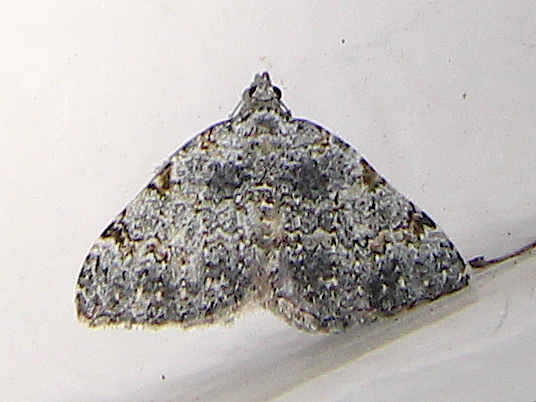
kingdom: Animalia
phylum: Arthropoda
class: Insecta
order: Lepidoptera
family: Geometridae
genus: Helastia
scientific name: Helastia mutabilis
